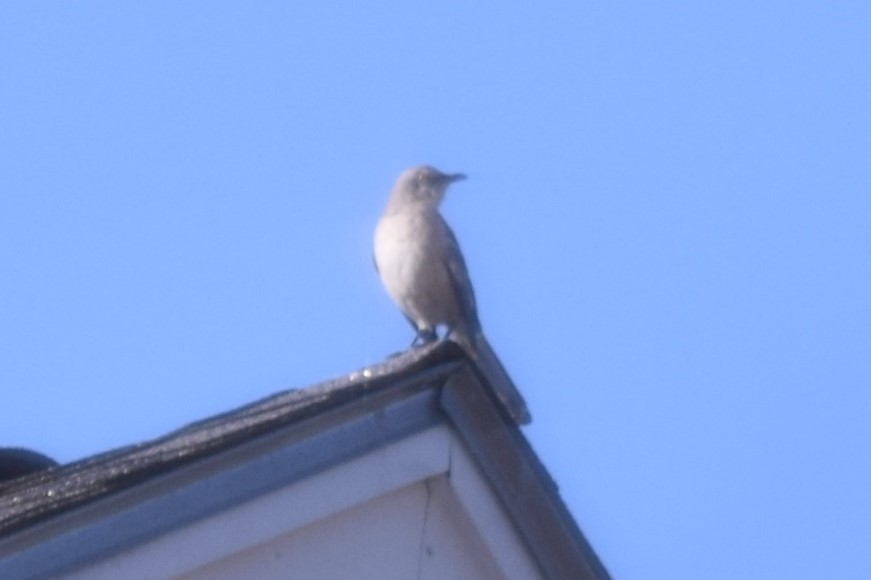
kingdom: Animalia
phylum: Chordata
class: Aves
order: Passeriformes
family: Mimidae
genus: Mimus
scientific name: Mimus polyglottos
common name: Northern mockingbird
